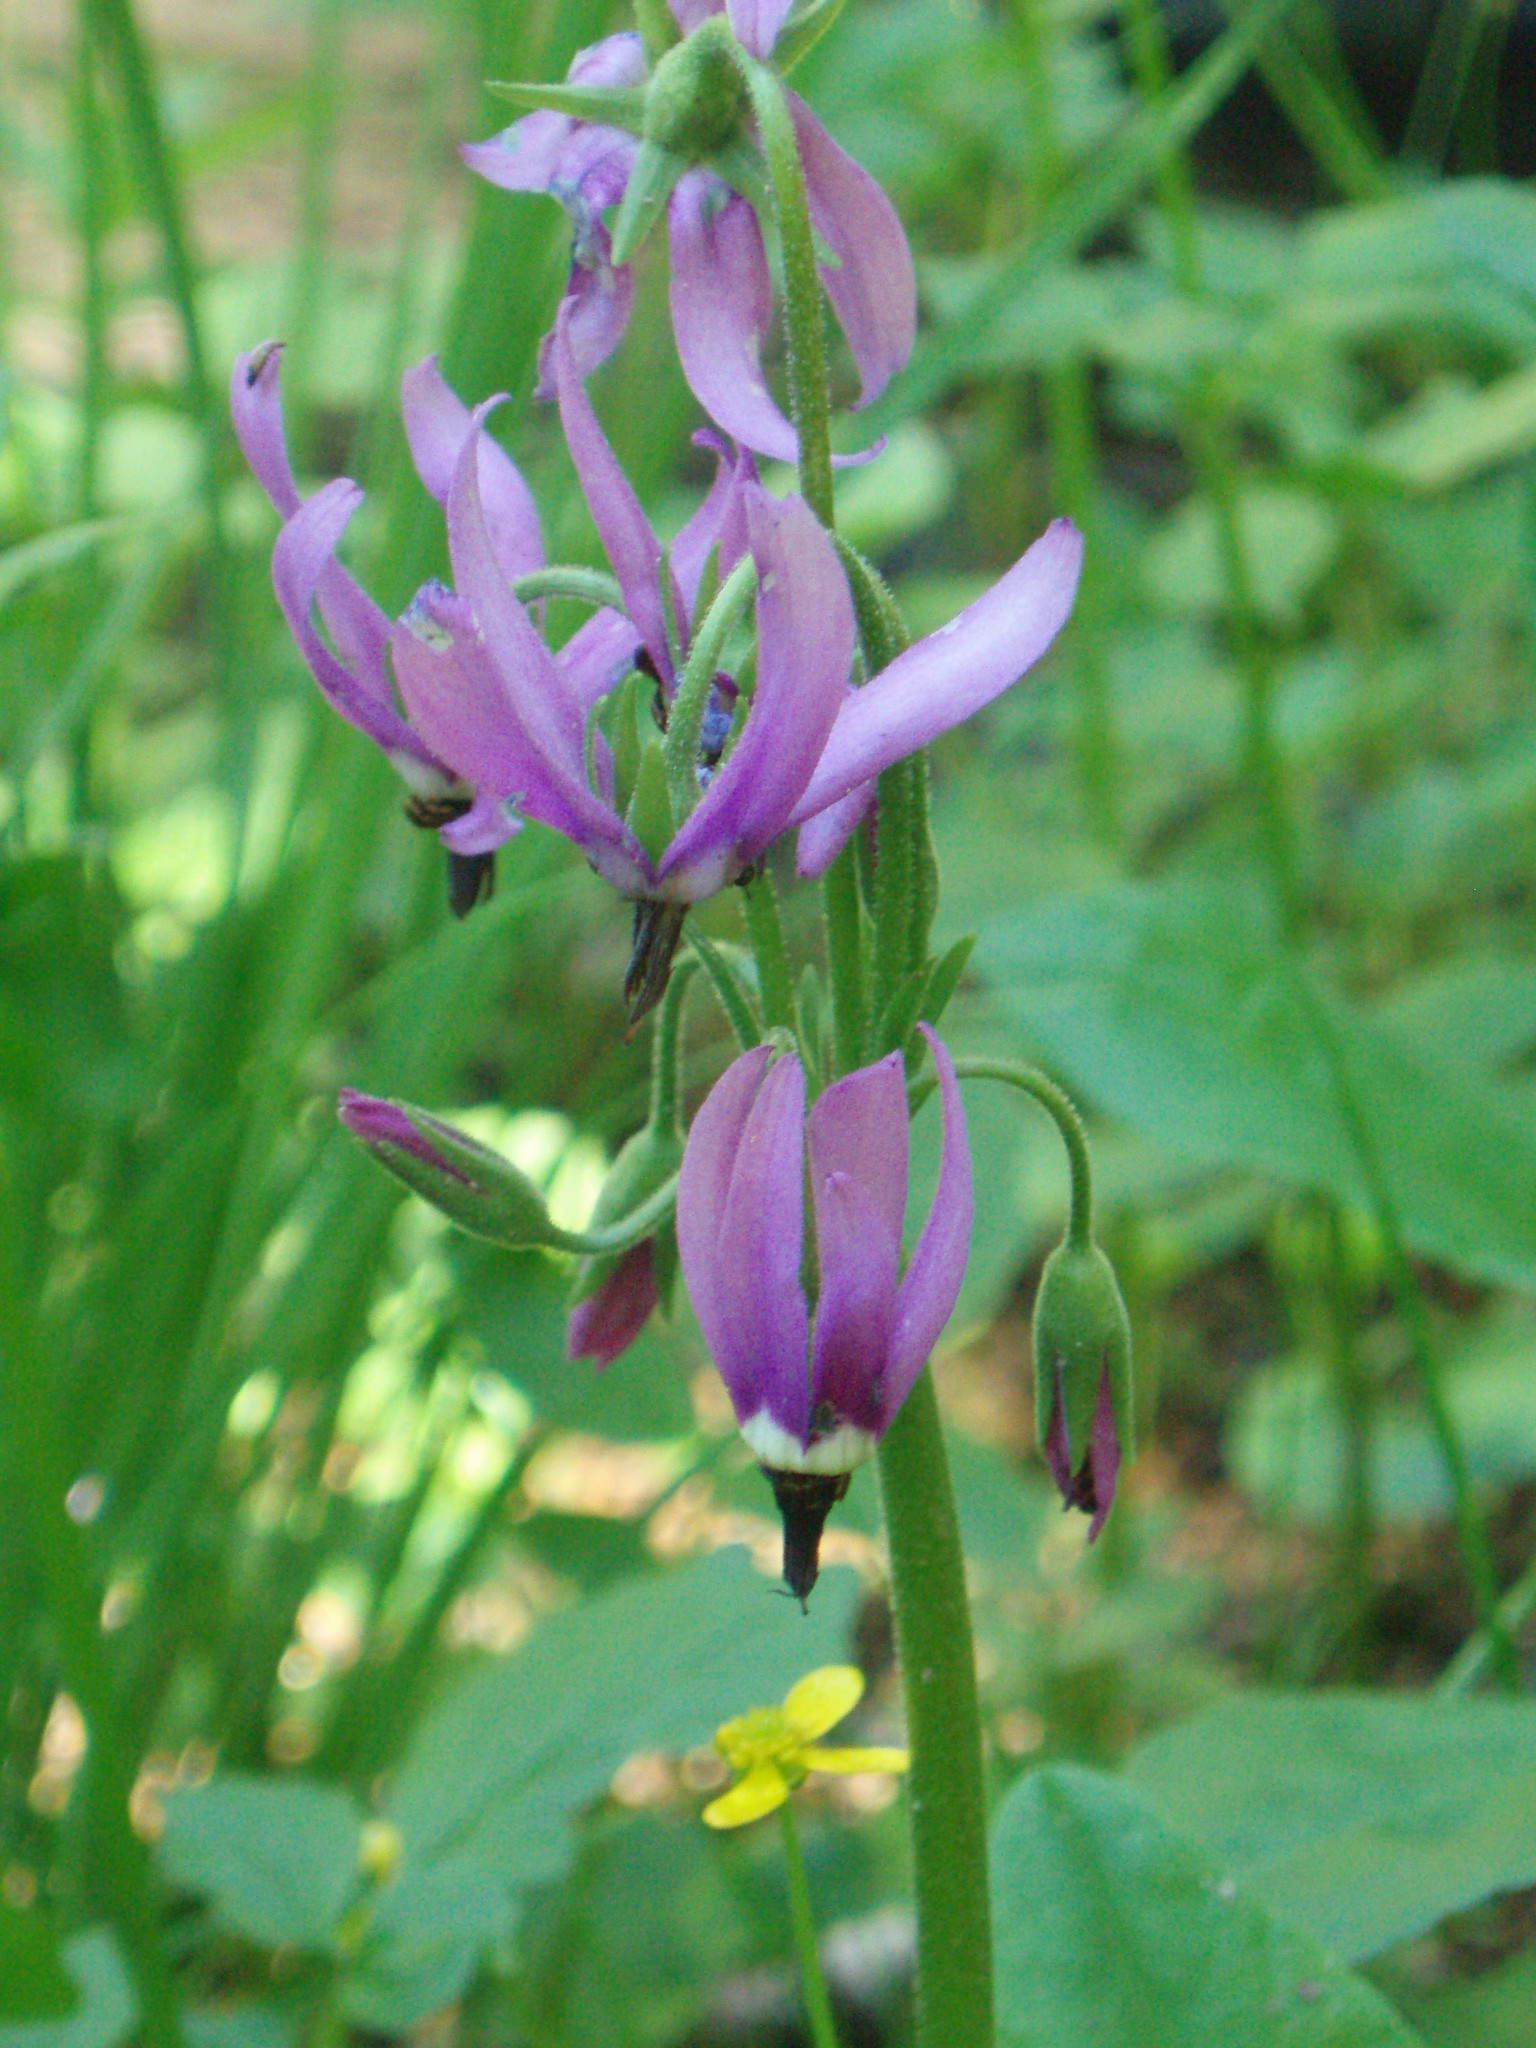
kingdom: Plantae
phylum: Tracheophyta
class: Magnoliopsida
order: Ericales
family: Primulaceae
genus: Dodecatheon
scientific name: Dodecatheon jeffreyanum
